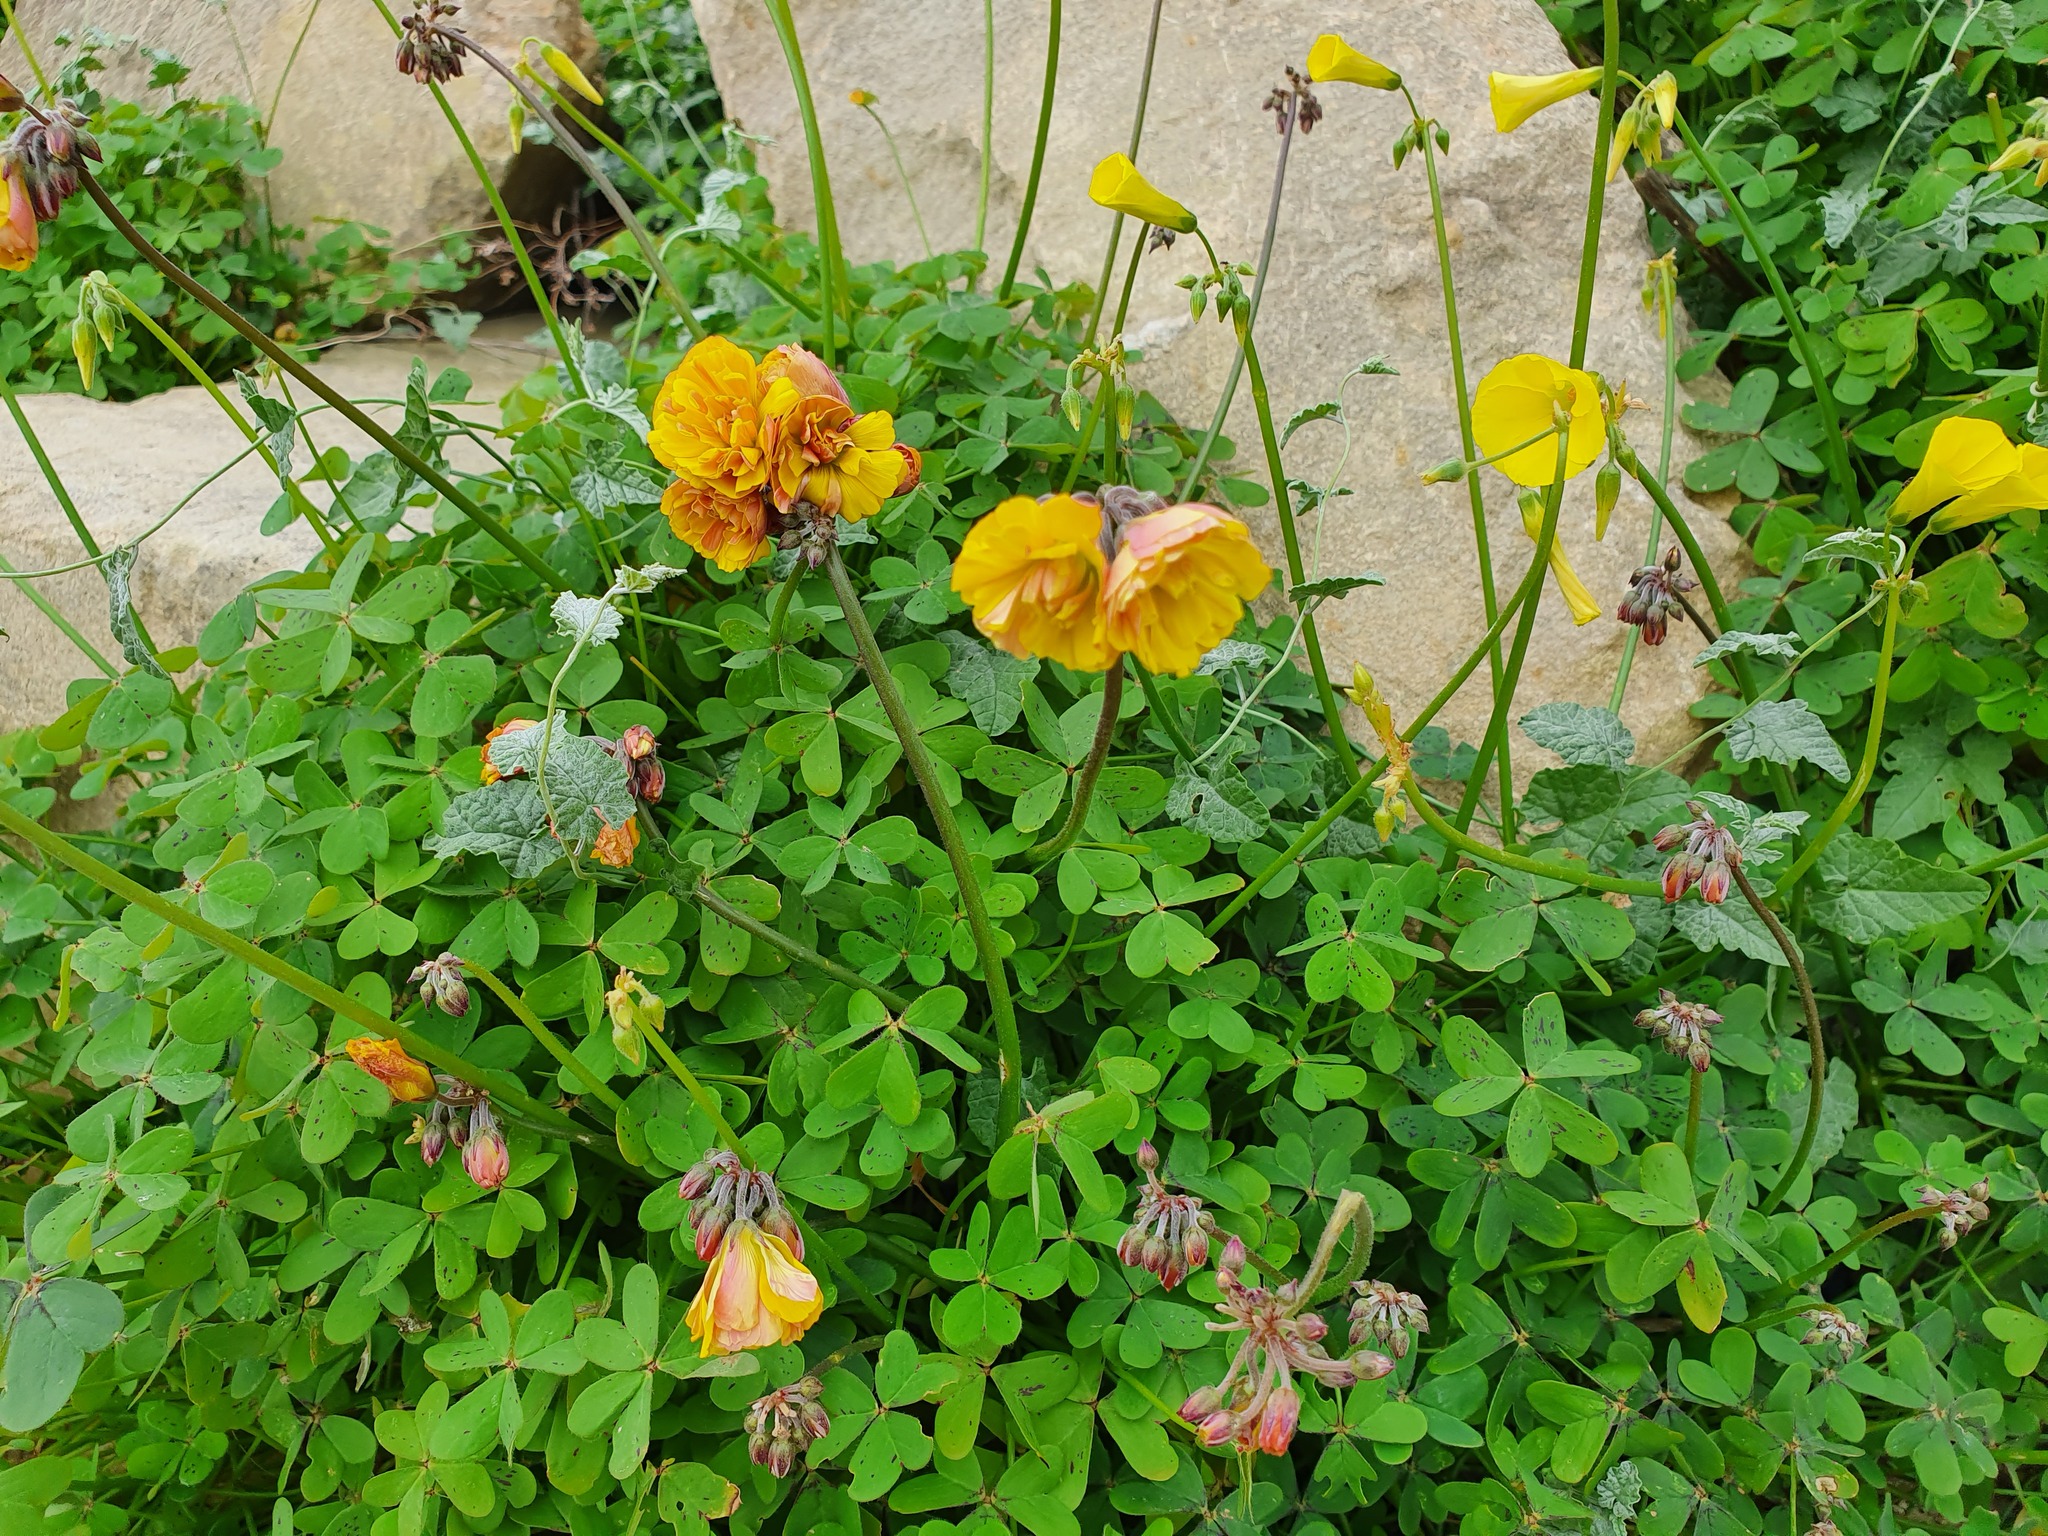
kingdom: Plantae
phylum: Tracheophyta
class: Magnoliopsida
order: Oxalidales
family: Oxalidaceae
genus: Oxalis
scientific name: Oxalis pes-caprae
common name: Bermuda-buttercup
